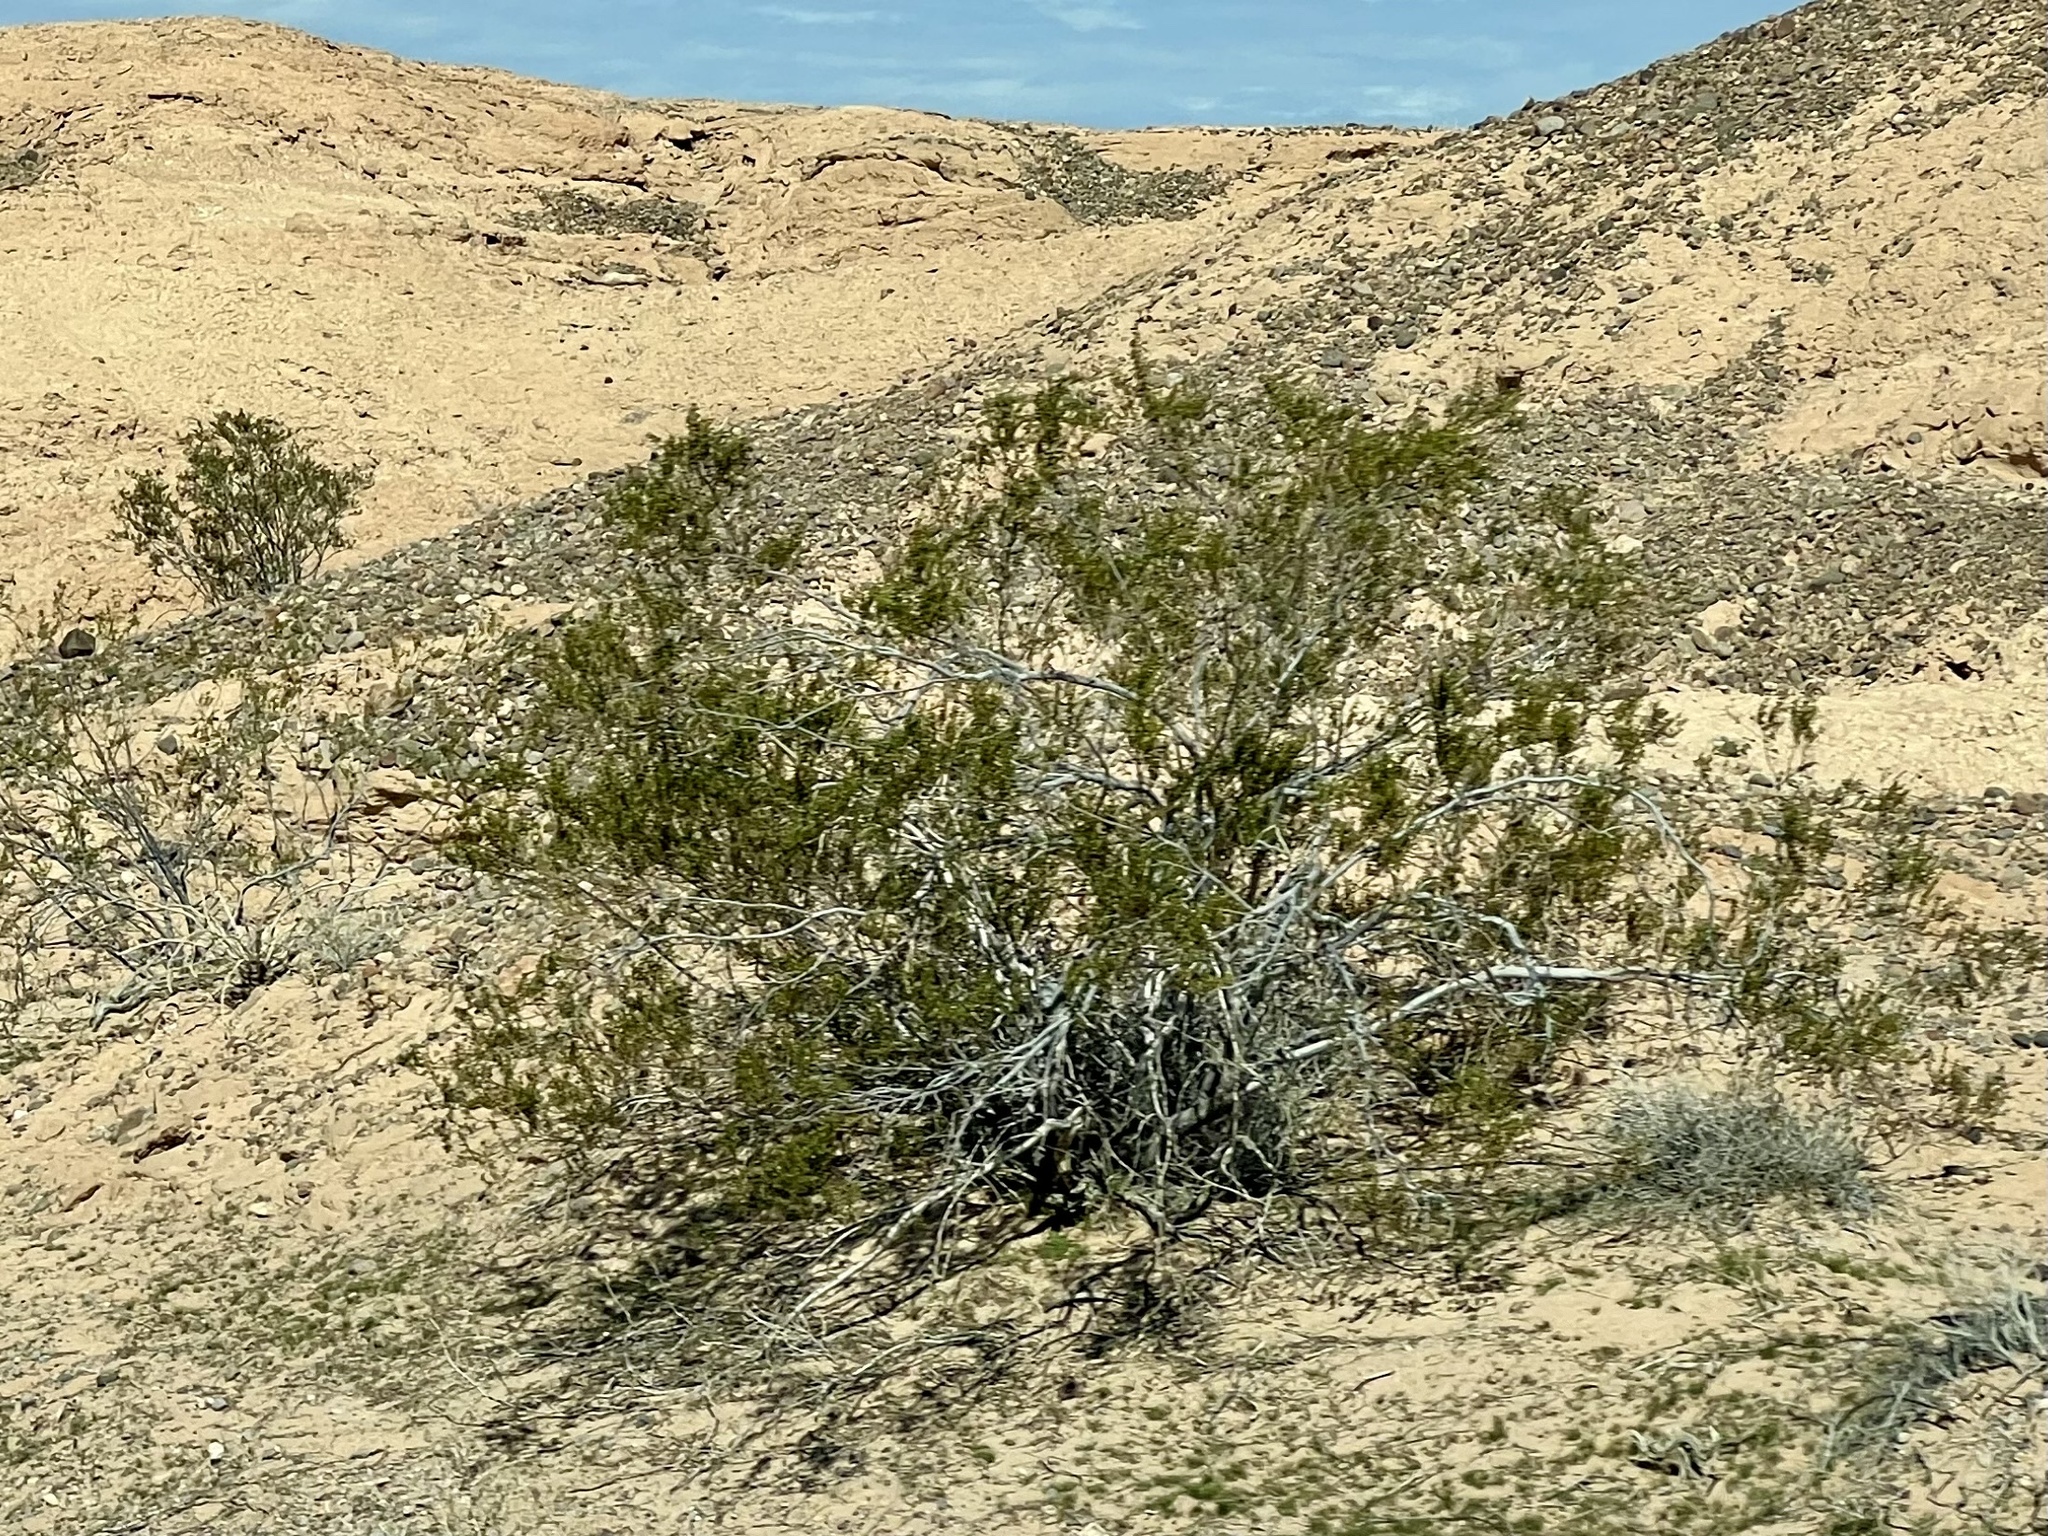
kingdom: Plantae
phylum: Tracheophyta
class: Magnoliopsida
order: Zygophyllales
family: Zygophyllaceae
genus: Larrea
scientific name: Larrea tridentata
